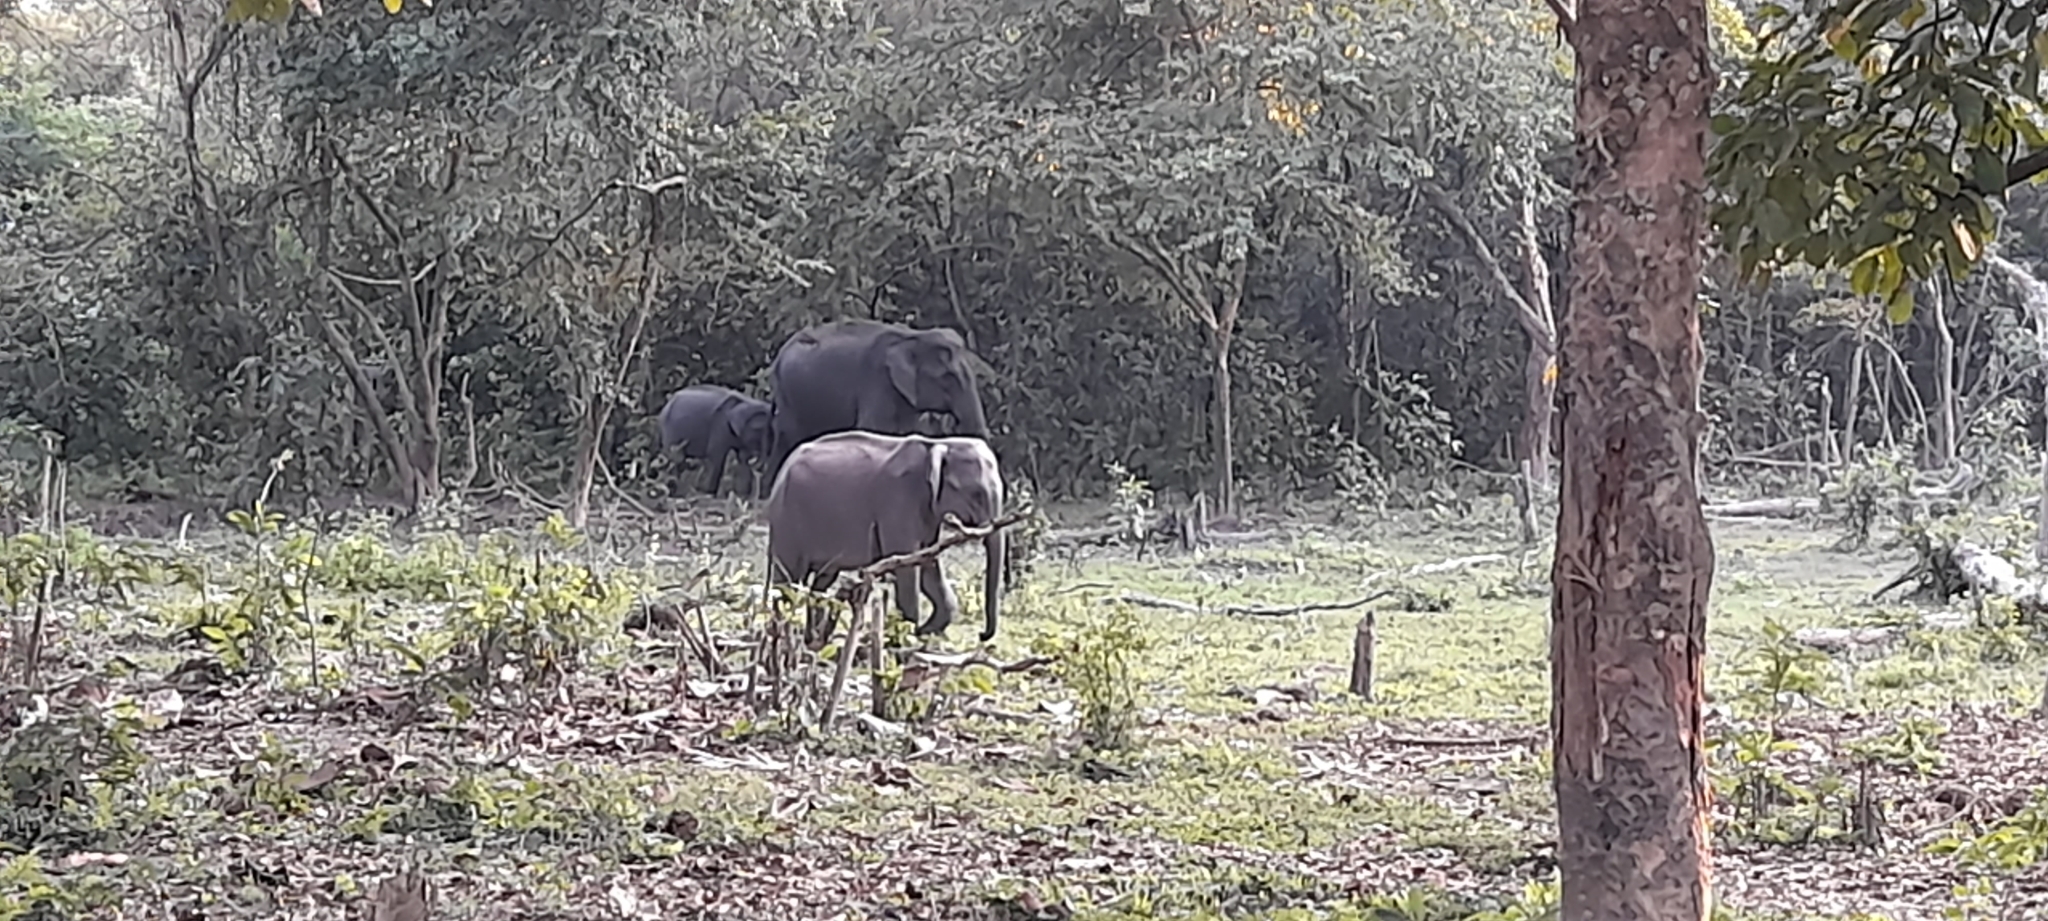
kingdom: Animalia
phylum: Chordata
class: Mammalia
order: Proboscidea
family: Elephantidae
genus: Elephas
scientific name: Elephas maximus
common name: Asian elephant
